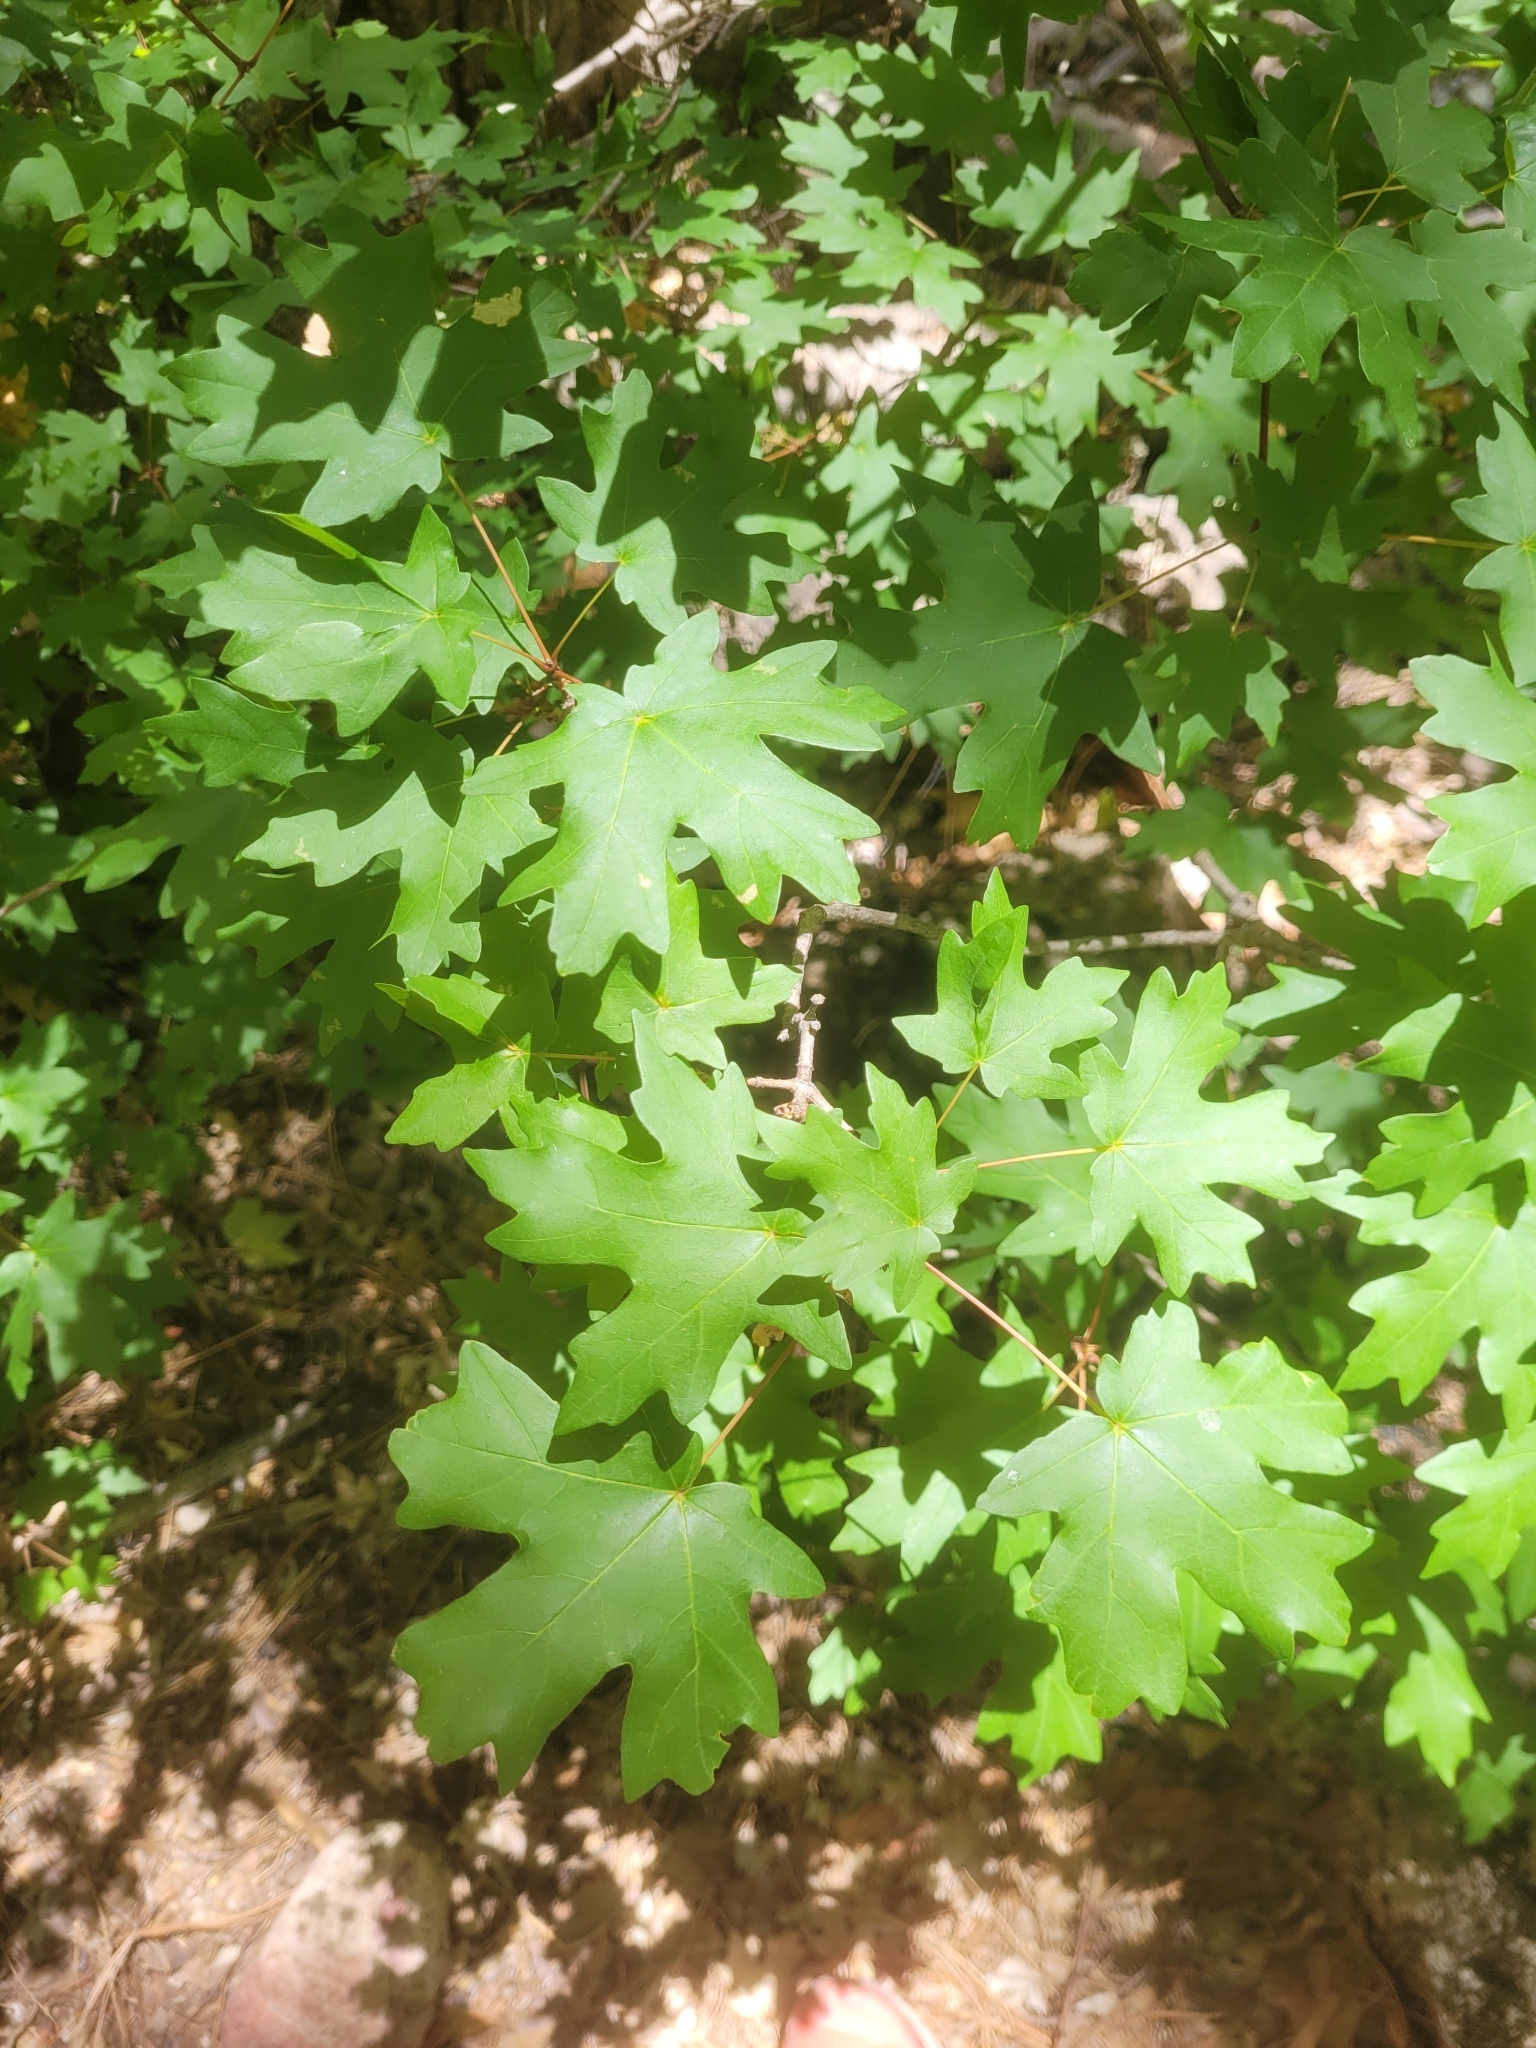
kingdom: Plantae
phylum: Tracheophyta
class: Magnoliopsida
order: Sapindales
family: Sapindaceae
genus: Acer
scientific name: Acer grandidentatum
